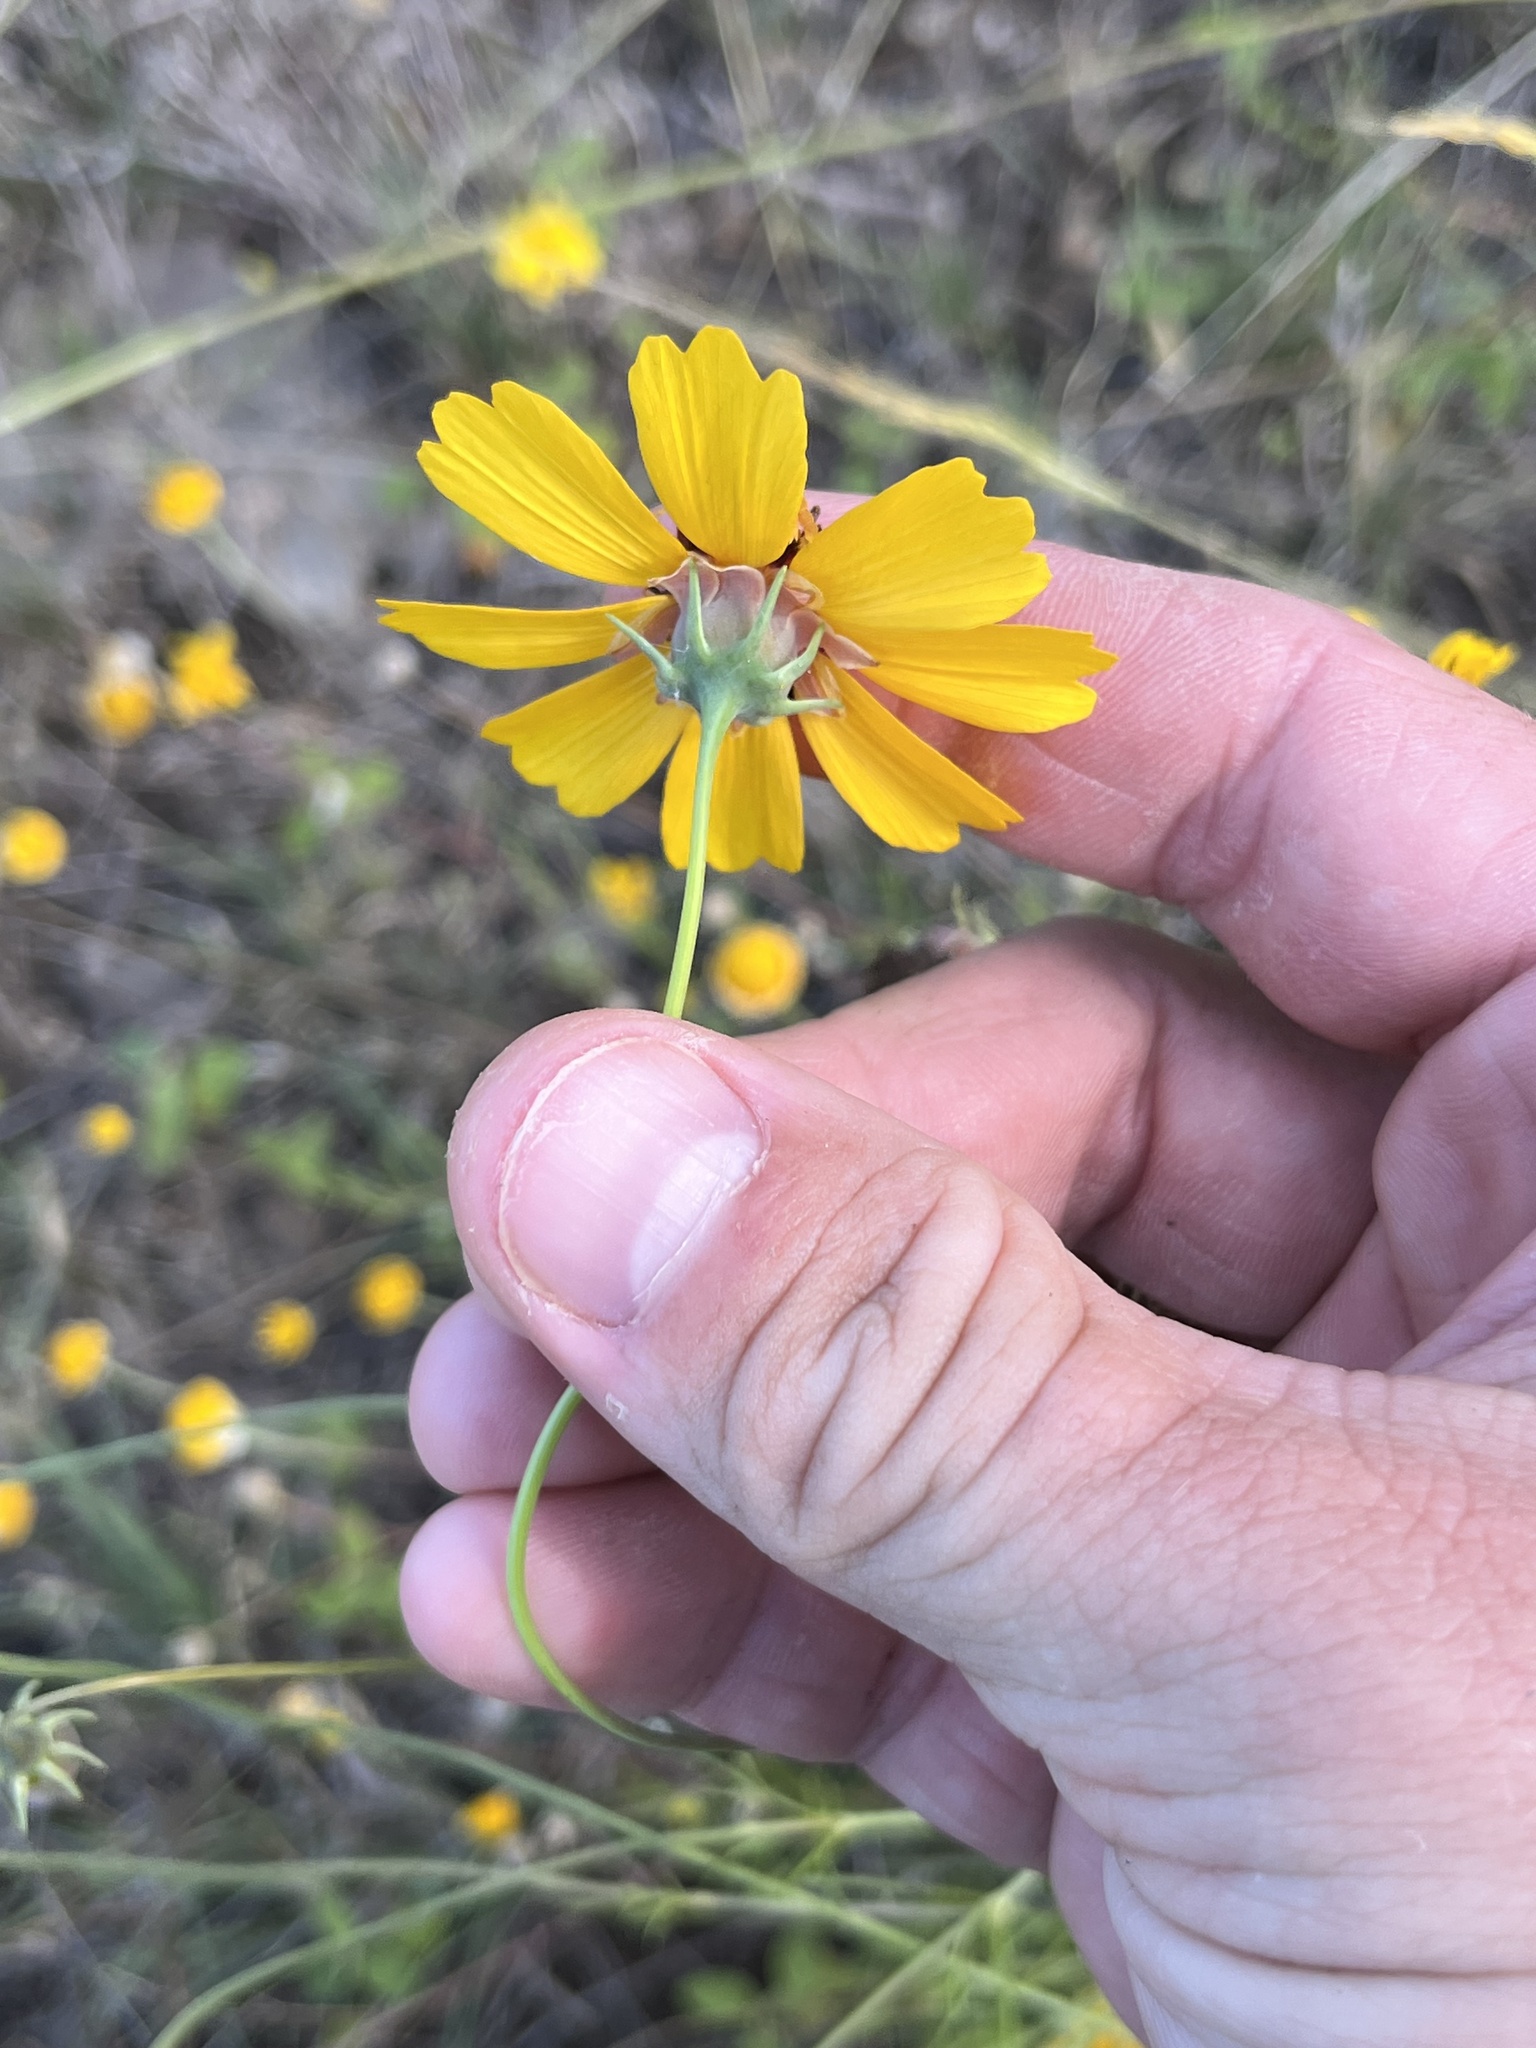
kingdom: Plantae
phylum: Tracheophyta
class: Magnoliopsida
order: Asterales
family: Asteraceae
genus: Thelesperma
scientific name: Thelesperma filifolium
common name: Stiff greenthread
